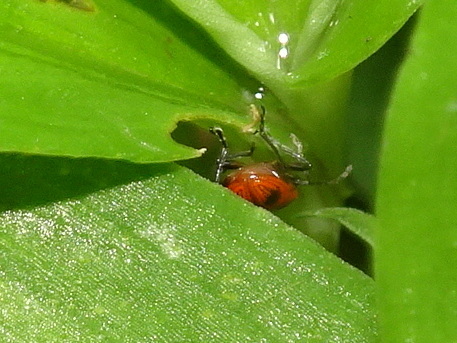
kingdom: Animalia
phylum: Arthropoda
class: Insecta
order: Coleoptera
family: Chrysomelidae
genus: Neolema
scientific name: Neolema sexpunctata
